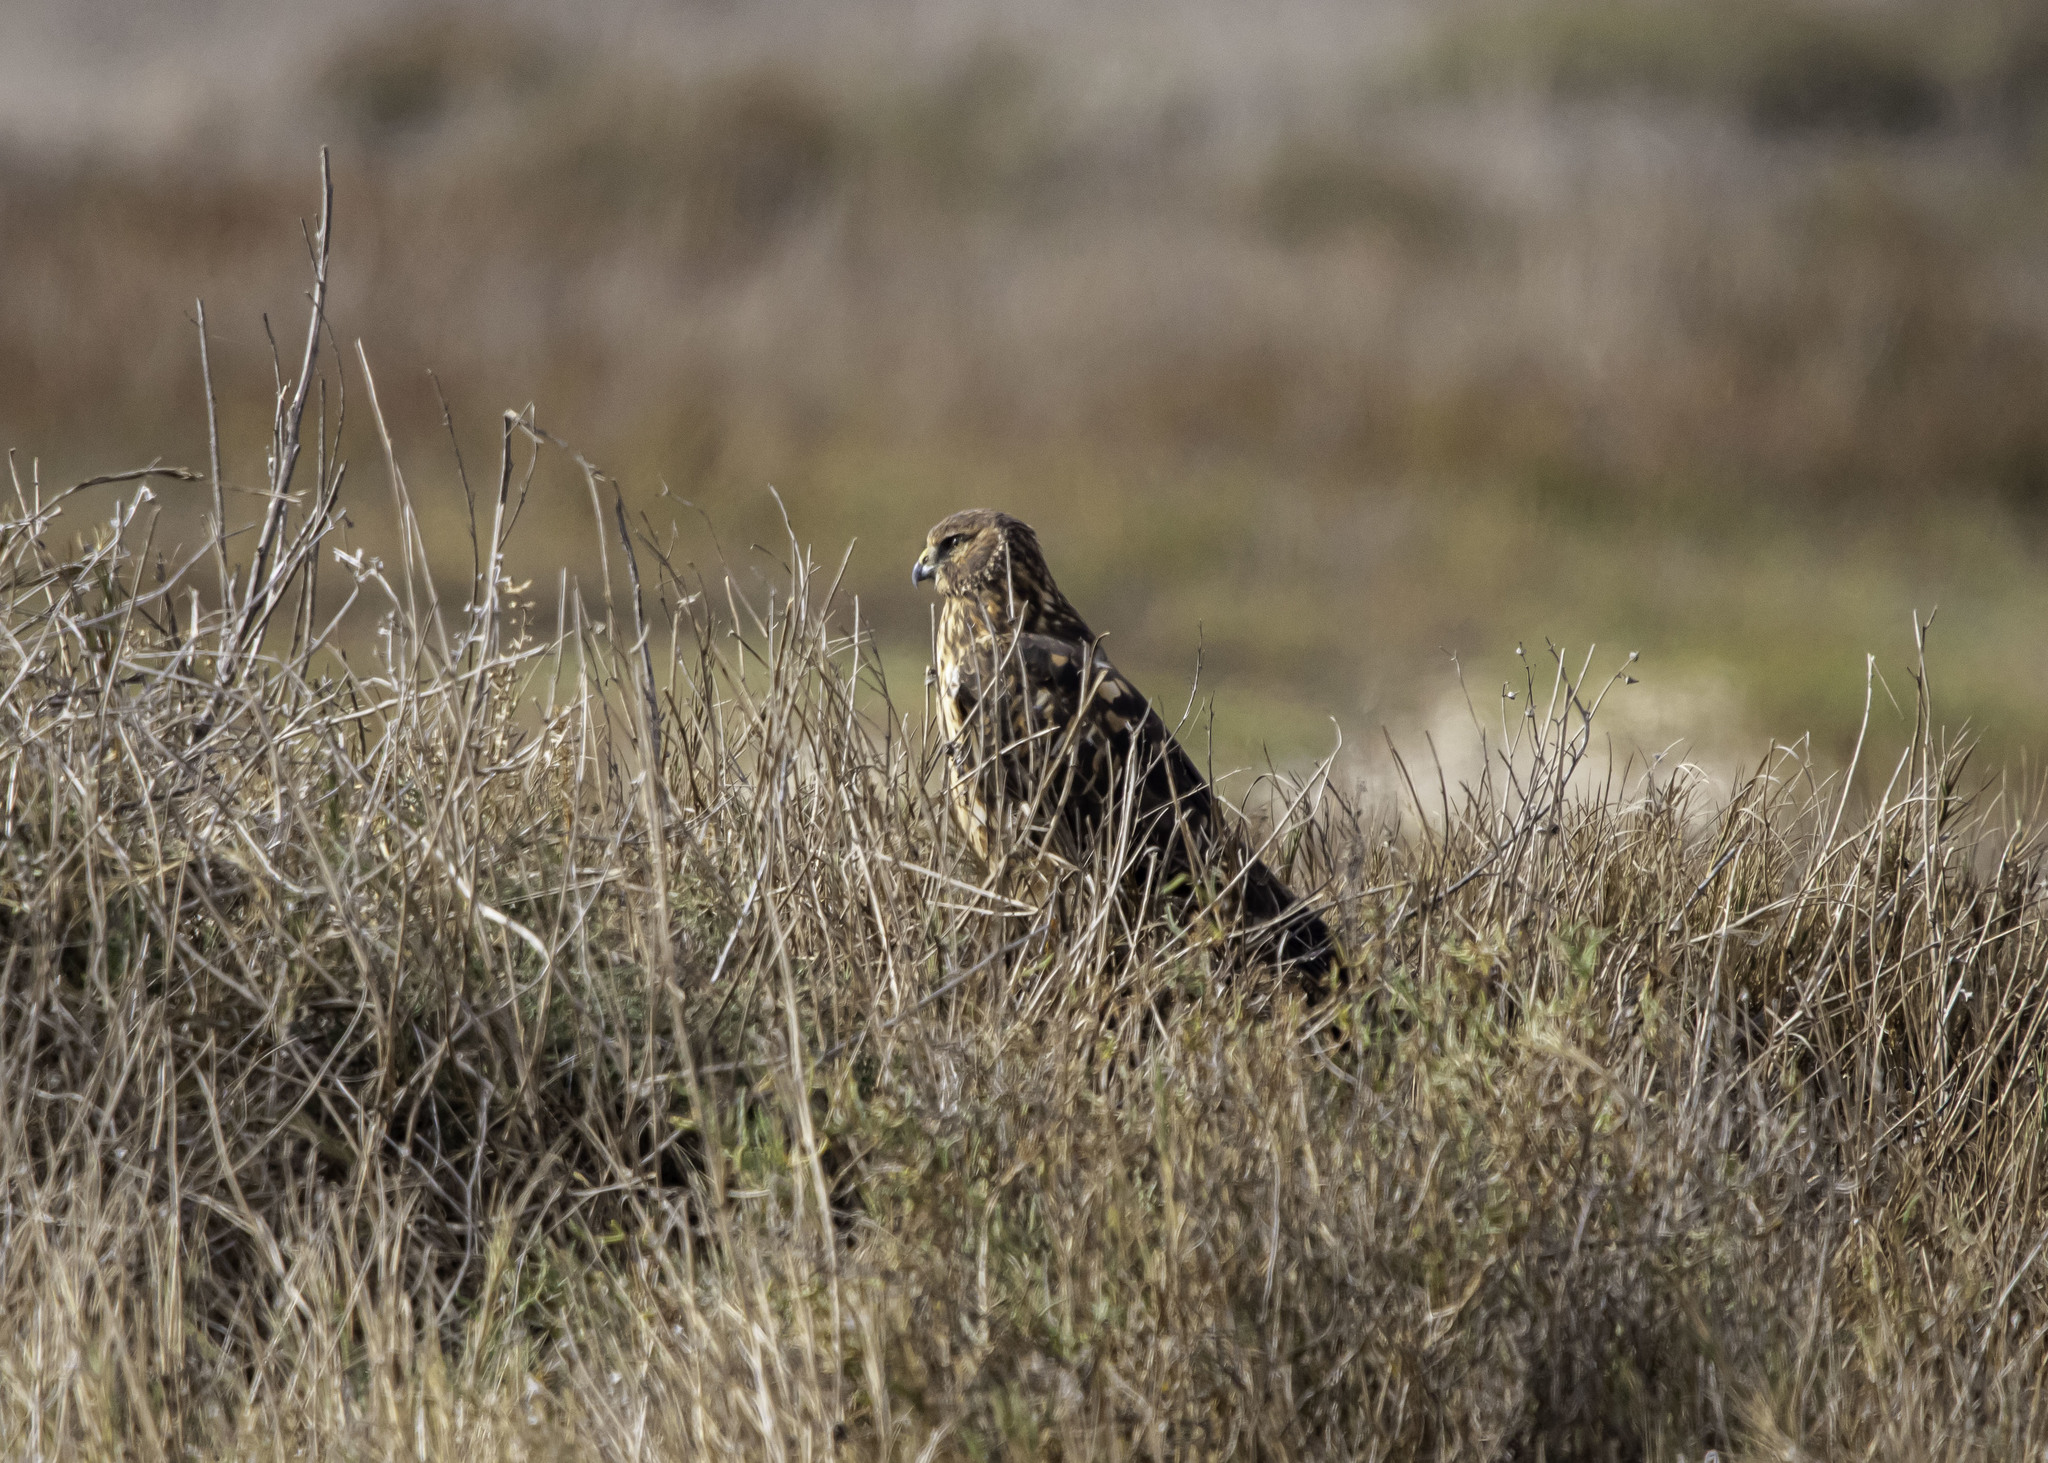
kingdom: Animalia
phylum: Chordata
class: Aves
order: Accipitriformes
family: Accipitridae
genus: Circus
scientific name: Circus cyaneus
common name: Hen harrier
